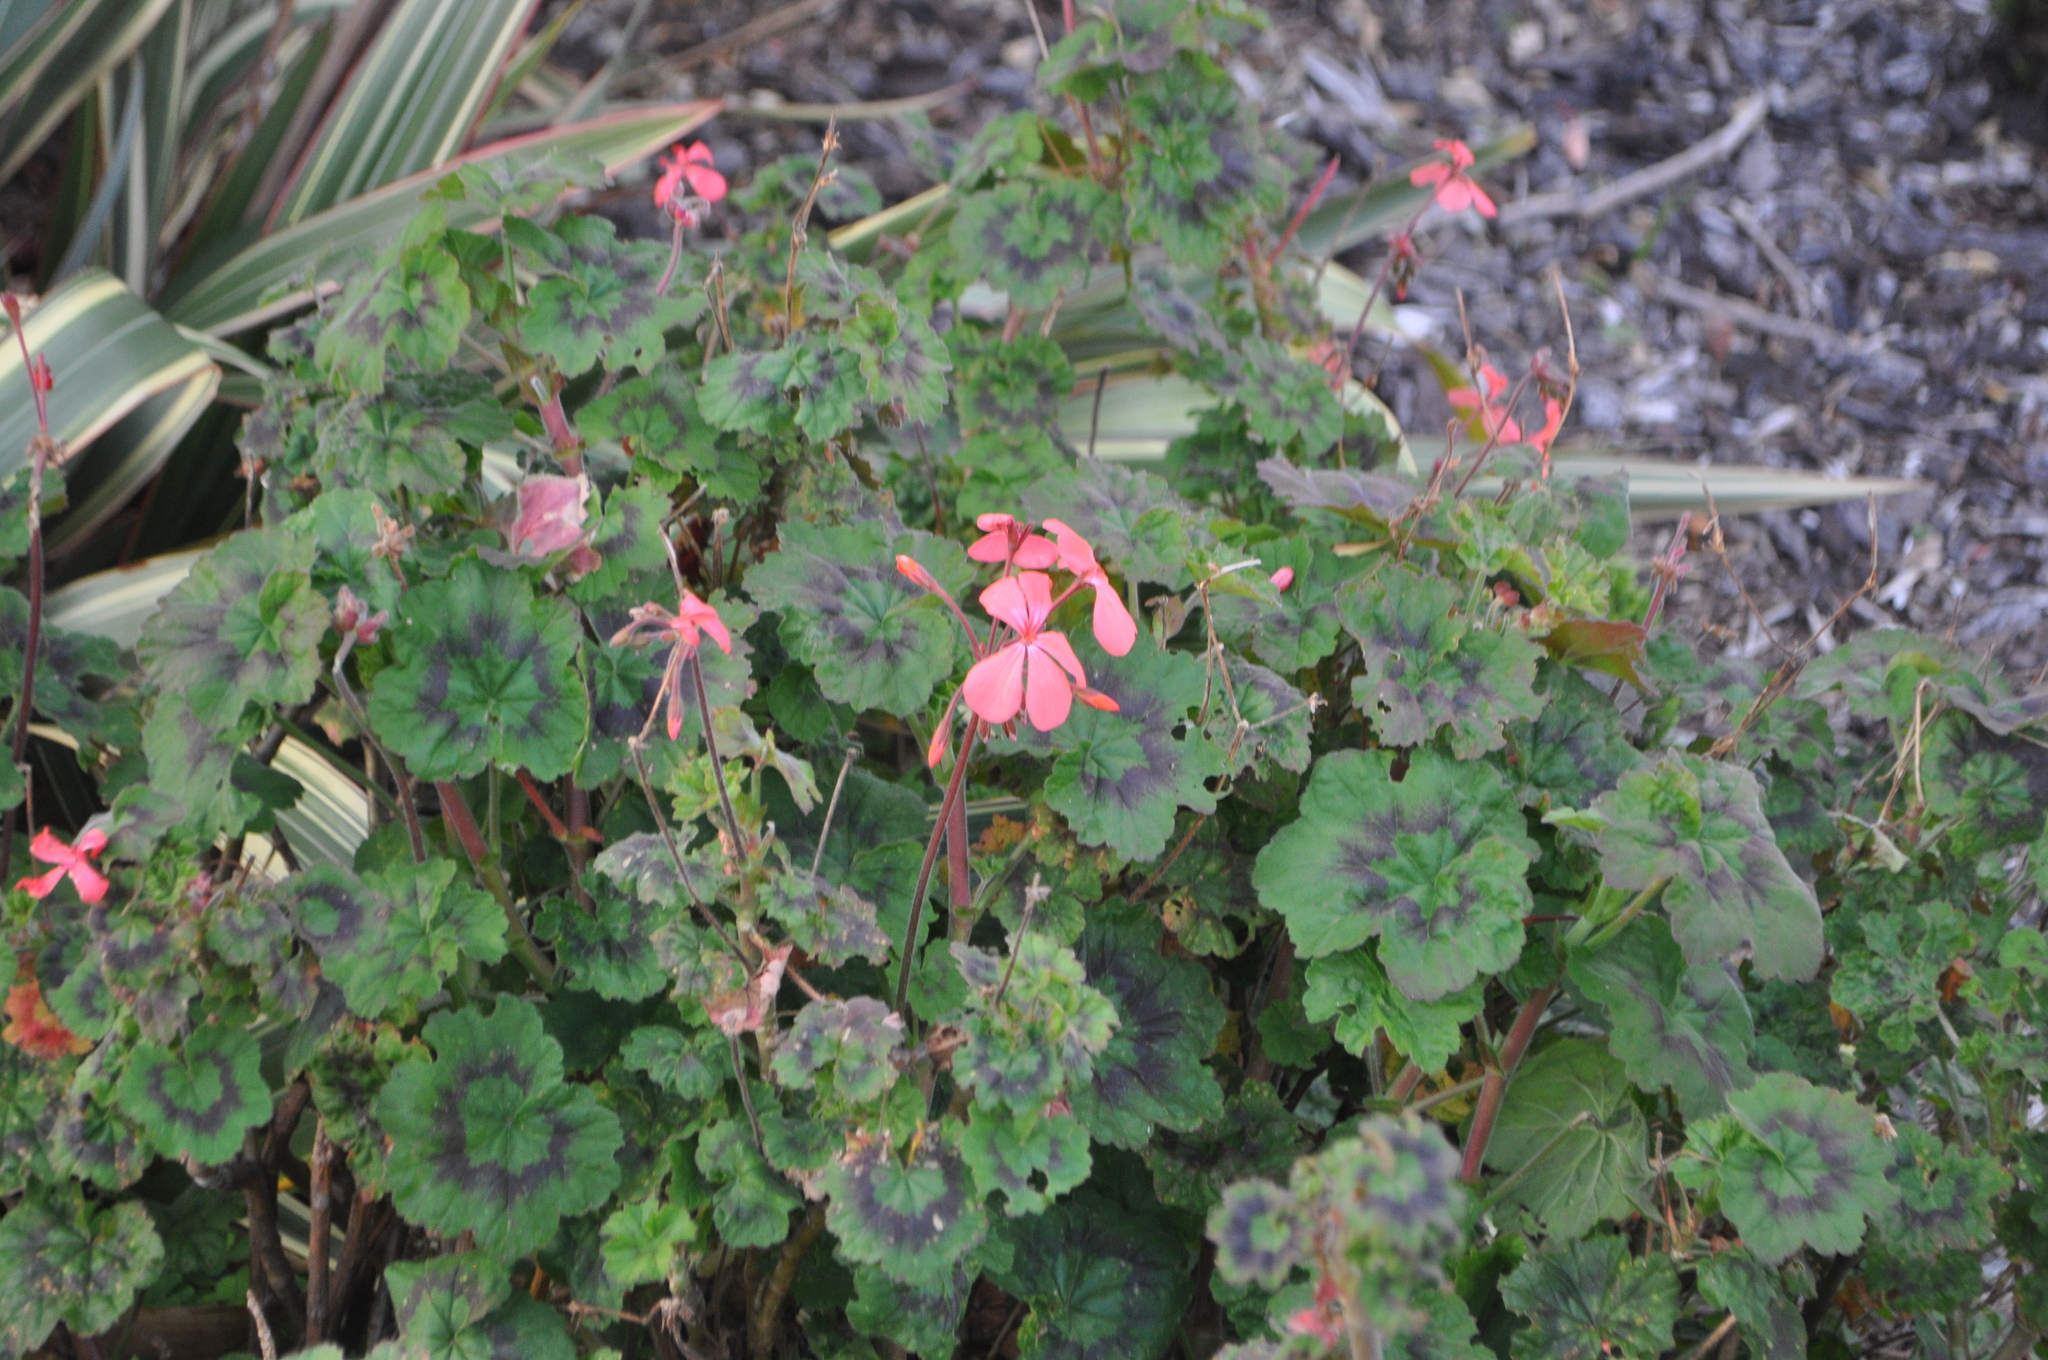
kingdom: Plantae
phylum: Tracheophyta
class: Magnoliopsida
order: Geraniales
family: Geraniaceae
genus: Pelargonium
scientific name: Pelargonium hybridum
